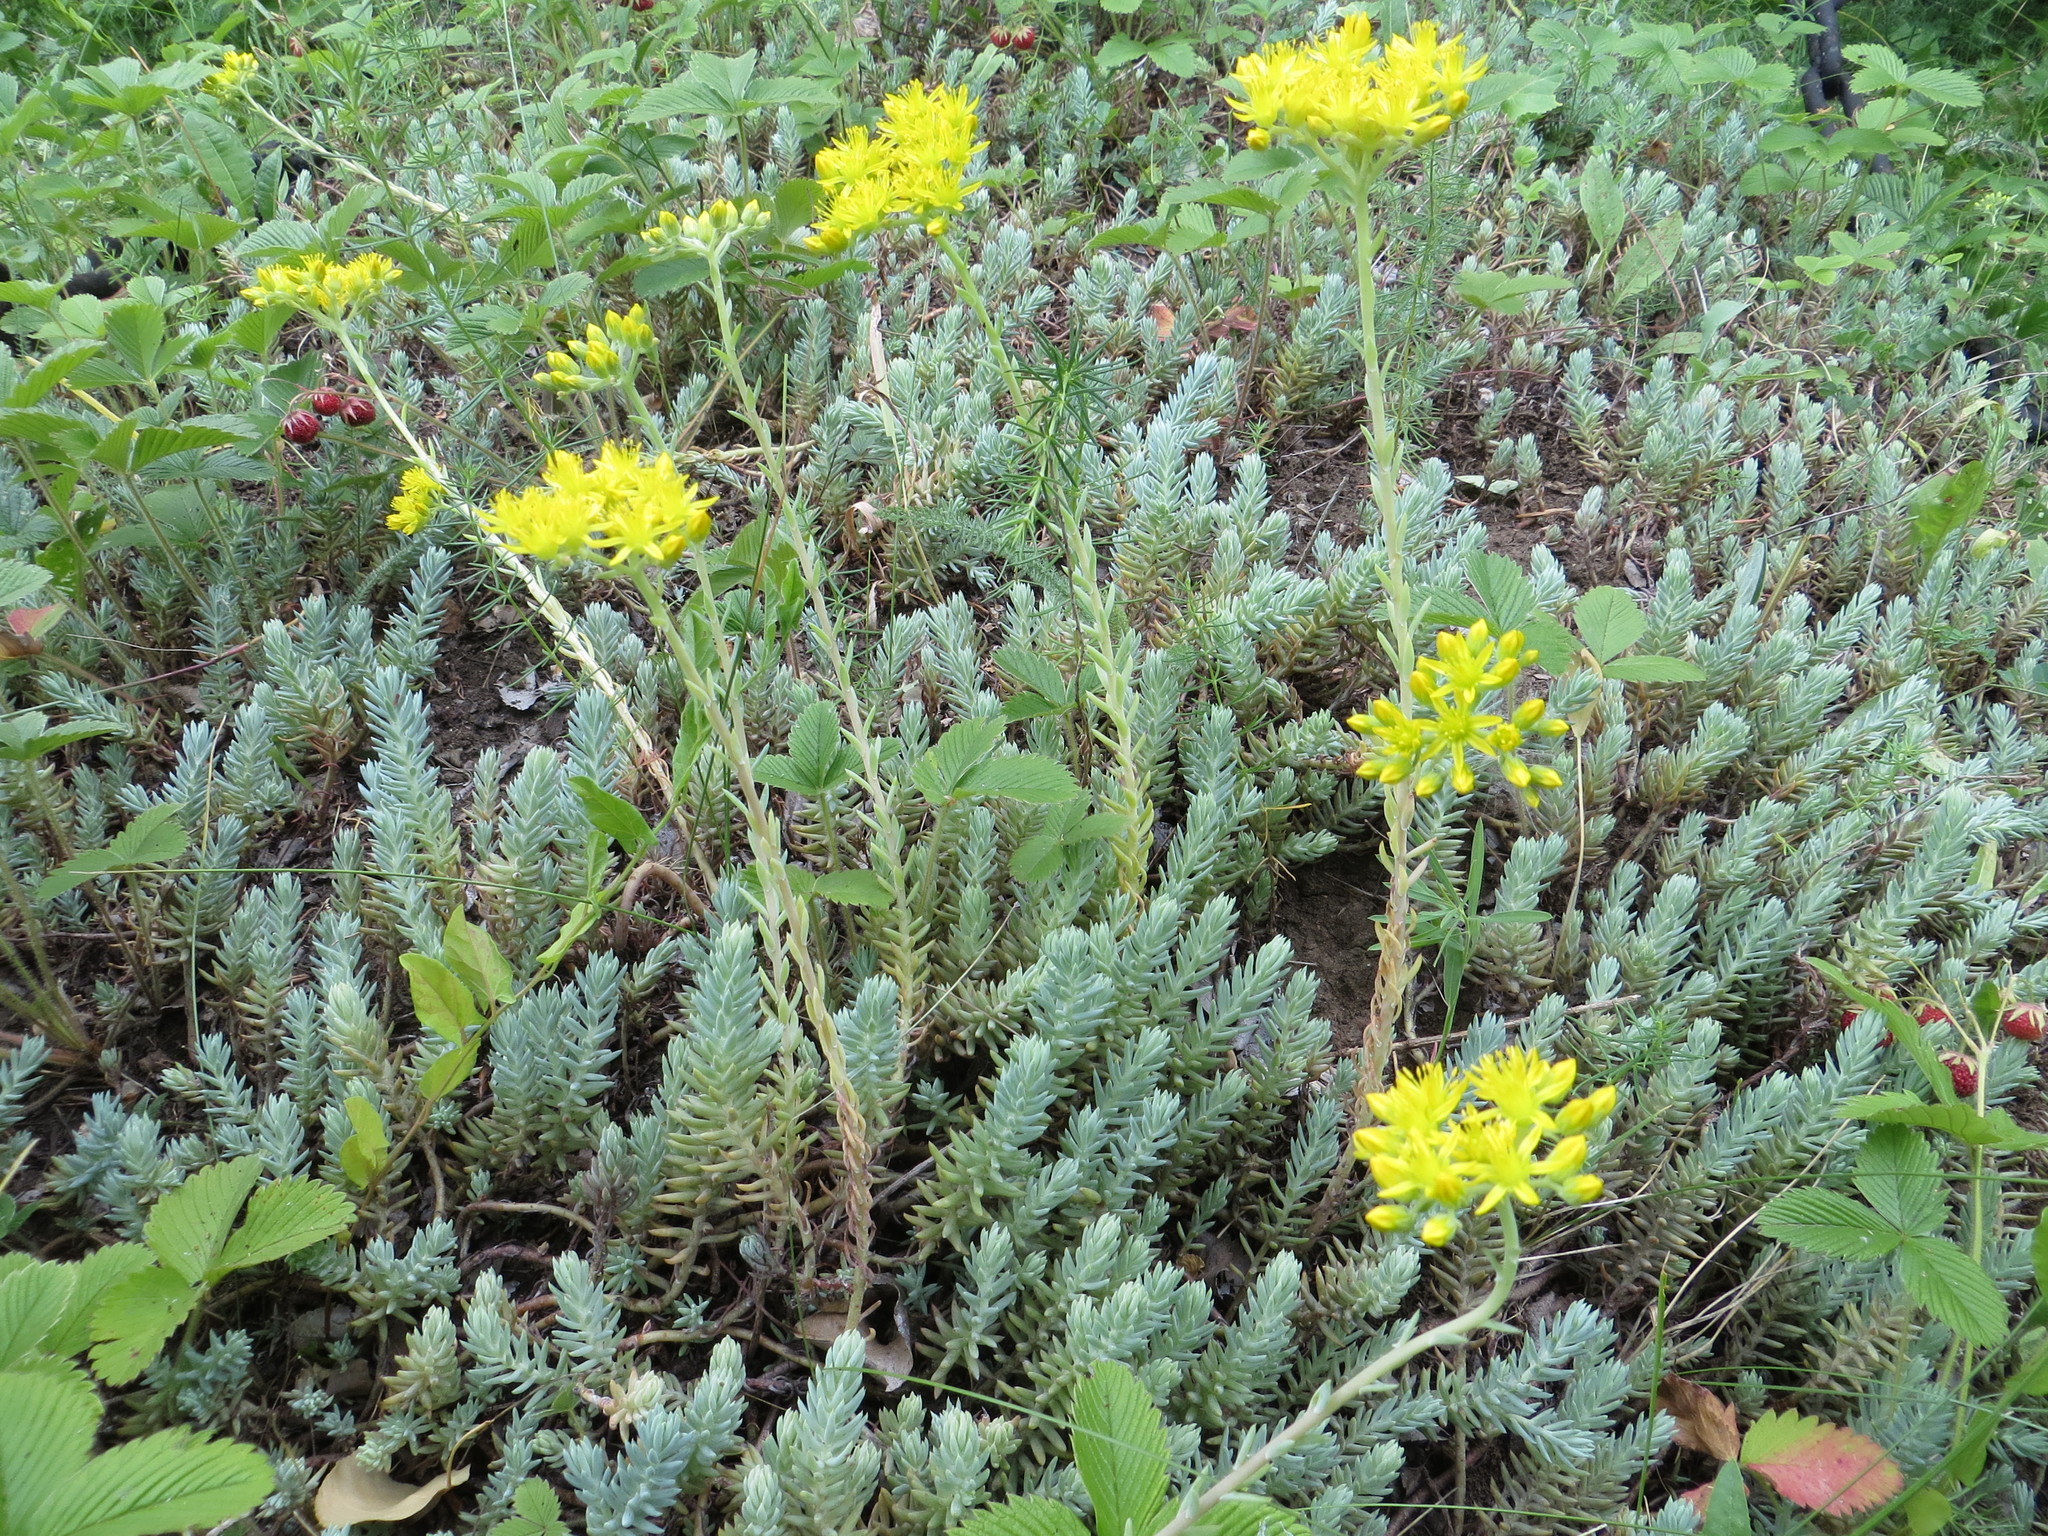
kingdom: Plantae
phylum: Tracheophyta
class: Magnoliopsida
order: Saxifragales
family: Crassulaceae
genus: Petrosedum
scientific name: Petrosedum rupestre
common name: Jenny's stonecrop
